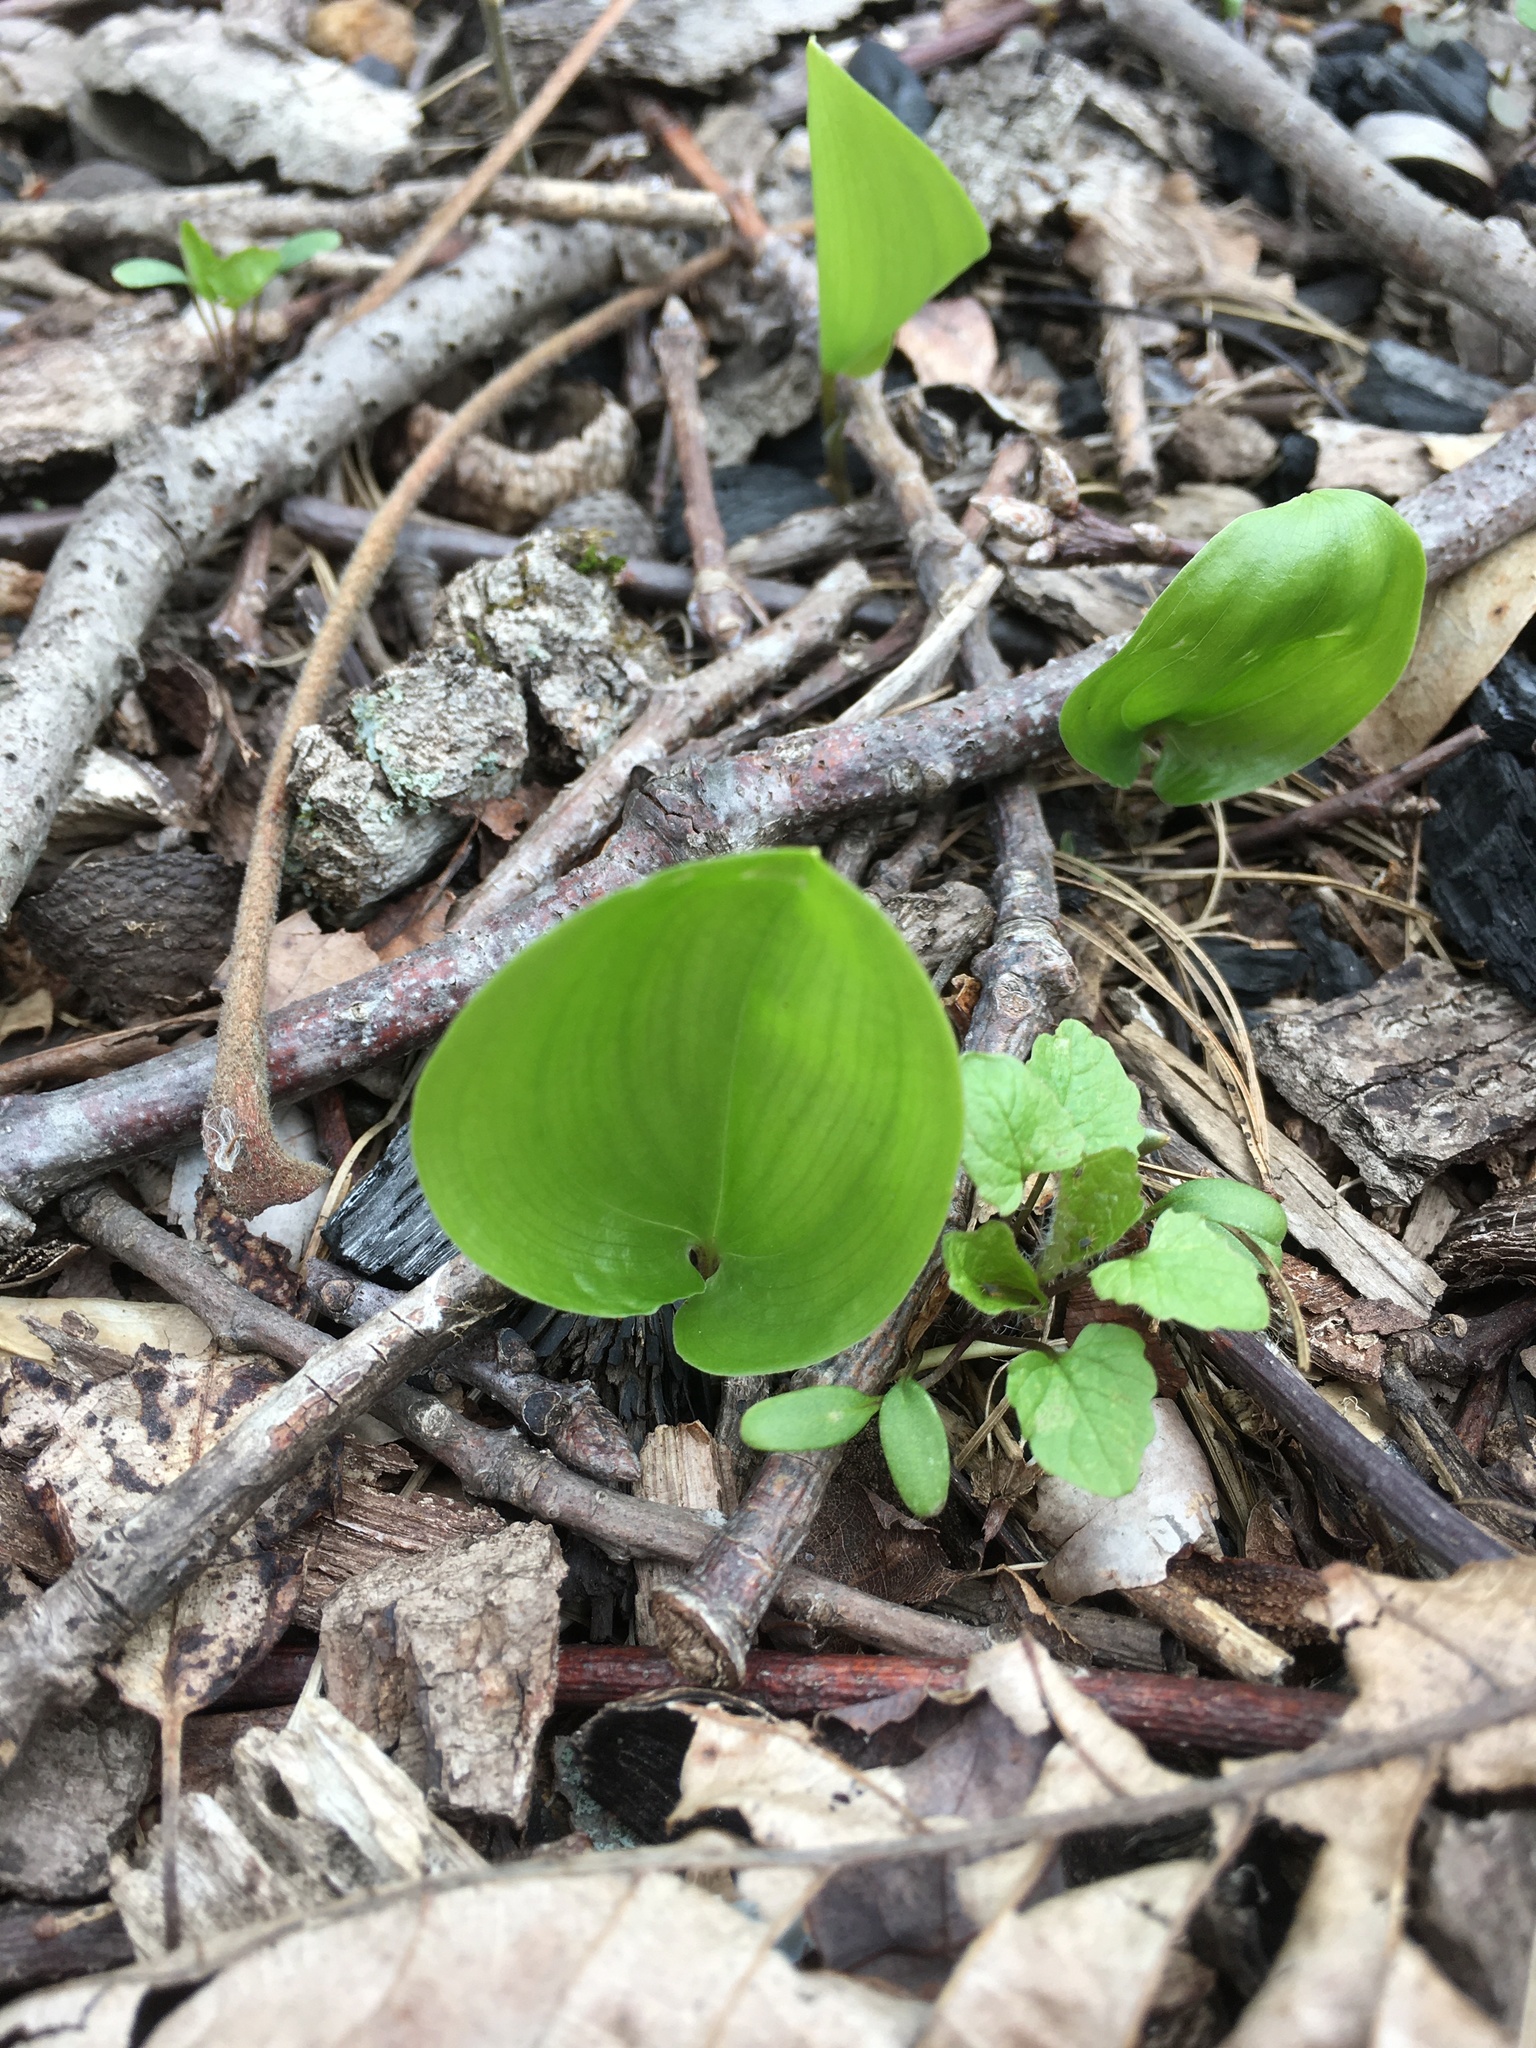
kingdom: Plantae
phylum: Tracheophyta
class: Liliopsida
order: Asparagales
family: Asparagaceae
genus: Maianthemum
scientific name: Maianthemum canadense
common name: False lily-of-the-valley
